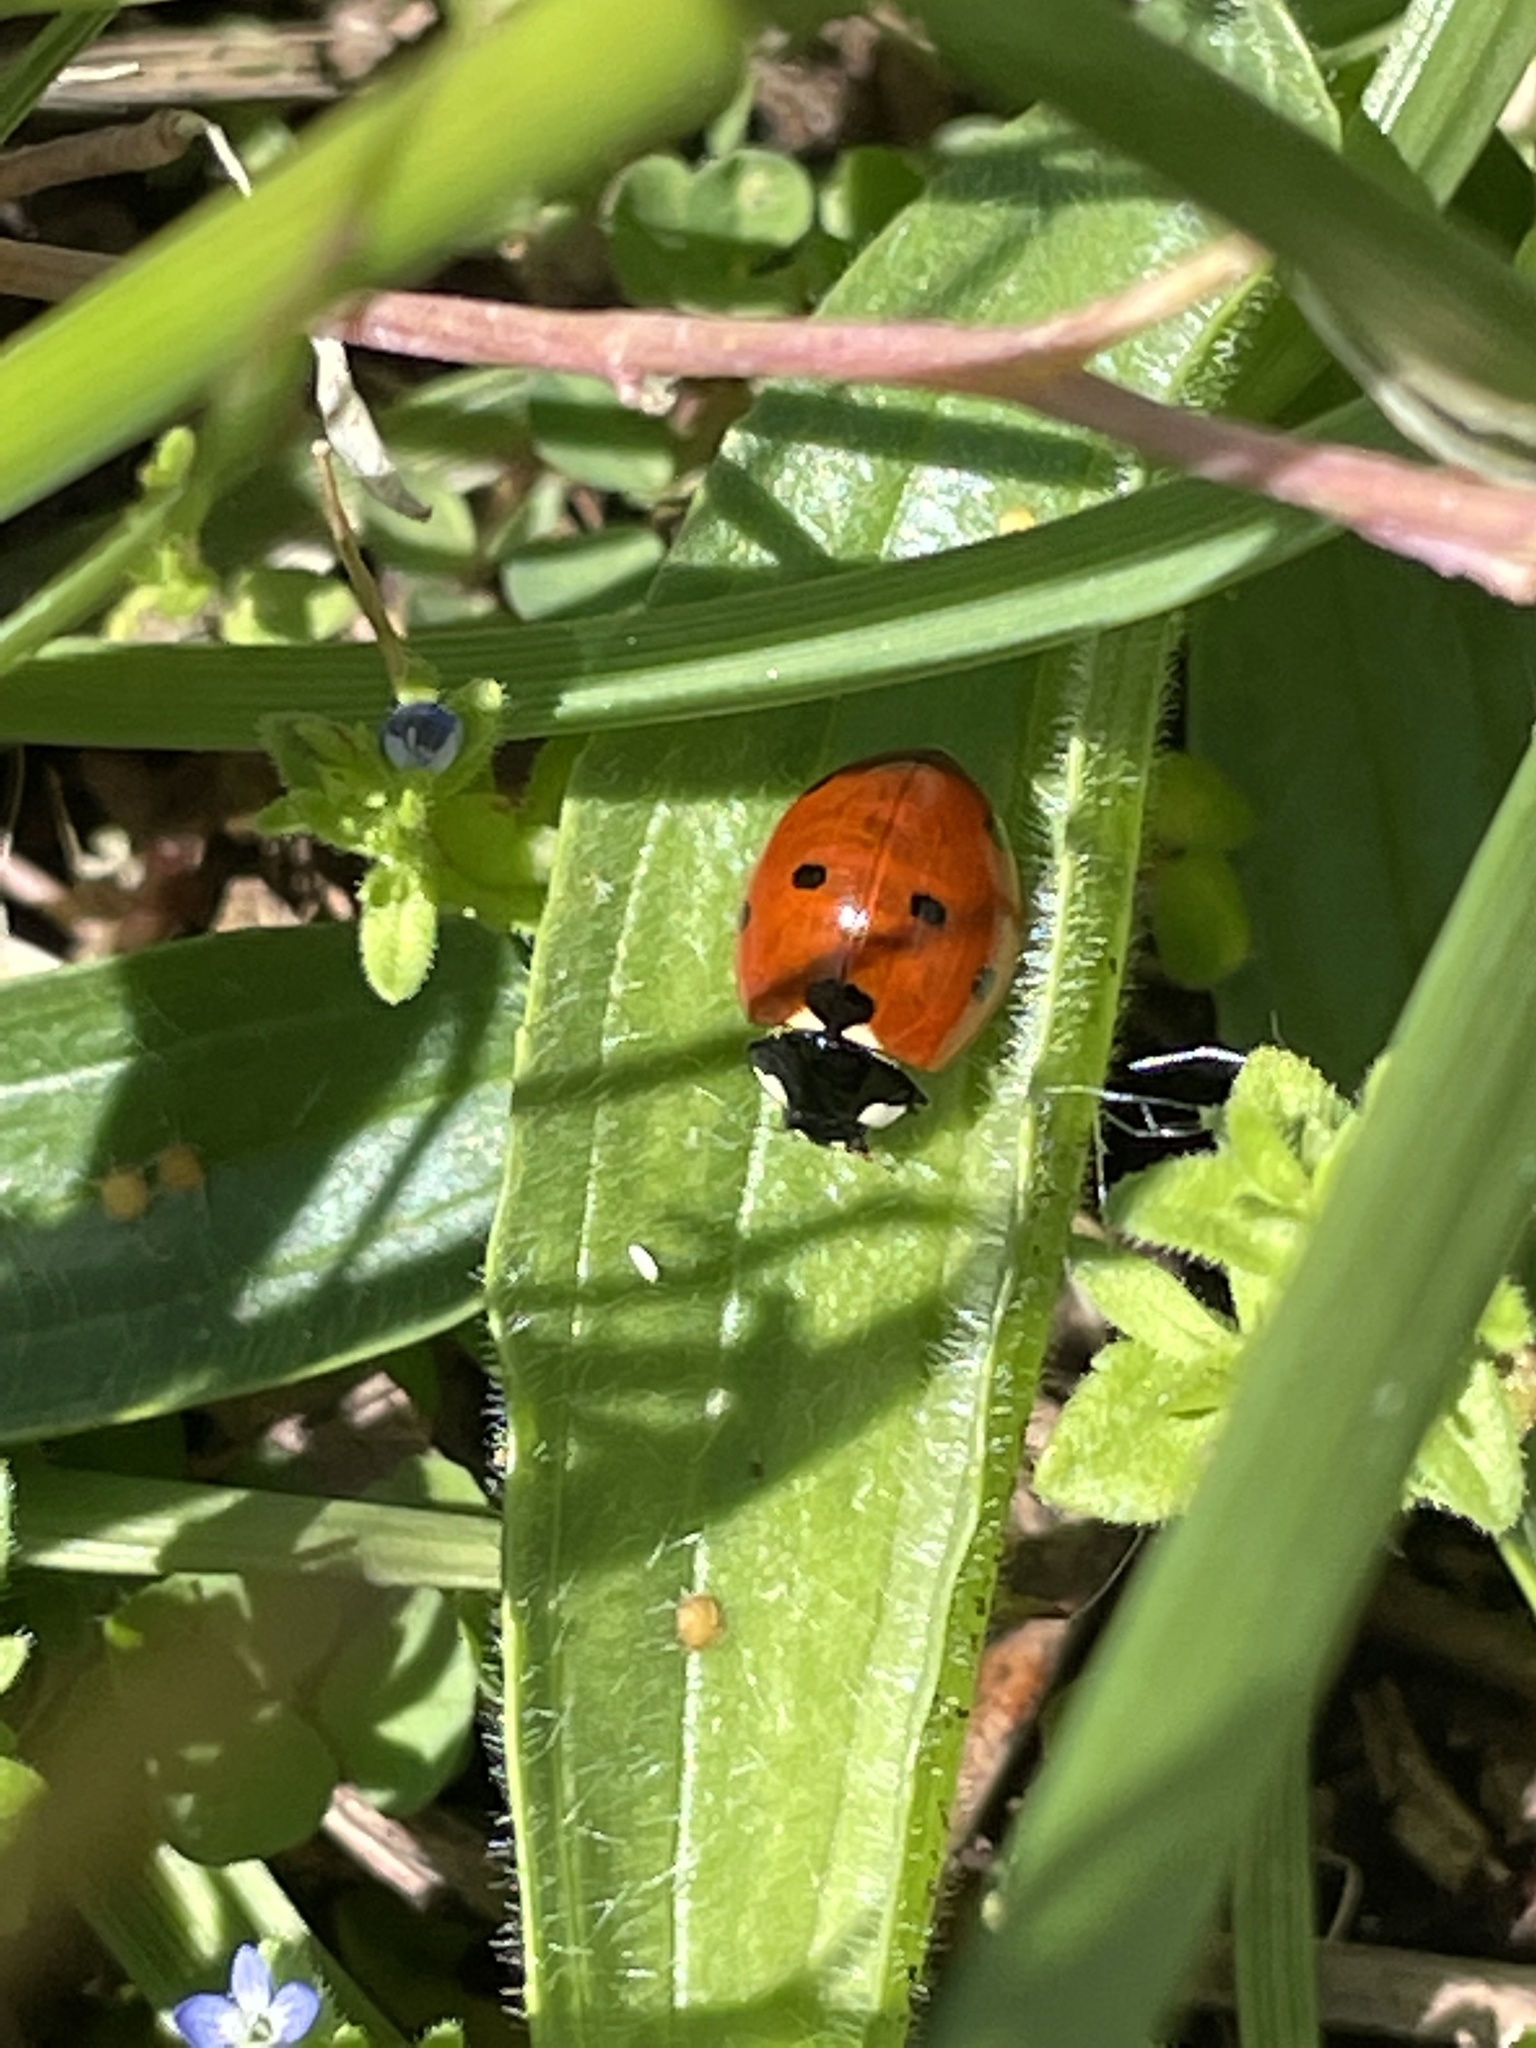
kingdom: Animalia
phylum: Arthropoda
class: Insecta
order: Coleoptera
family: Coccinellidae
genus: Coccinella
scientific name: Coccinella septempunctata
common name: Sevenspotted lady beetle
